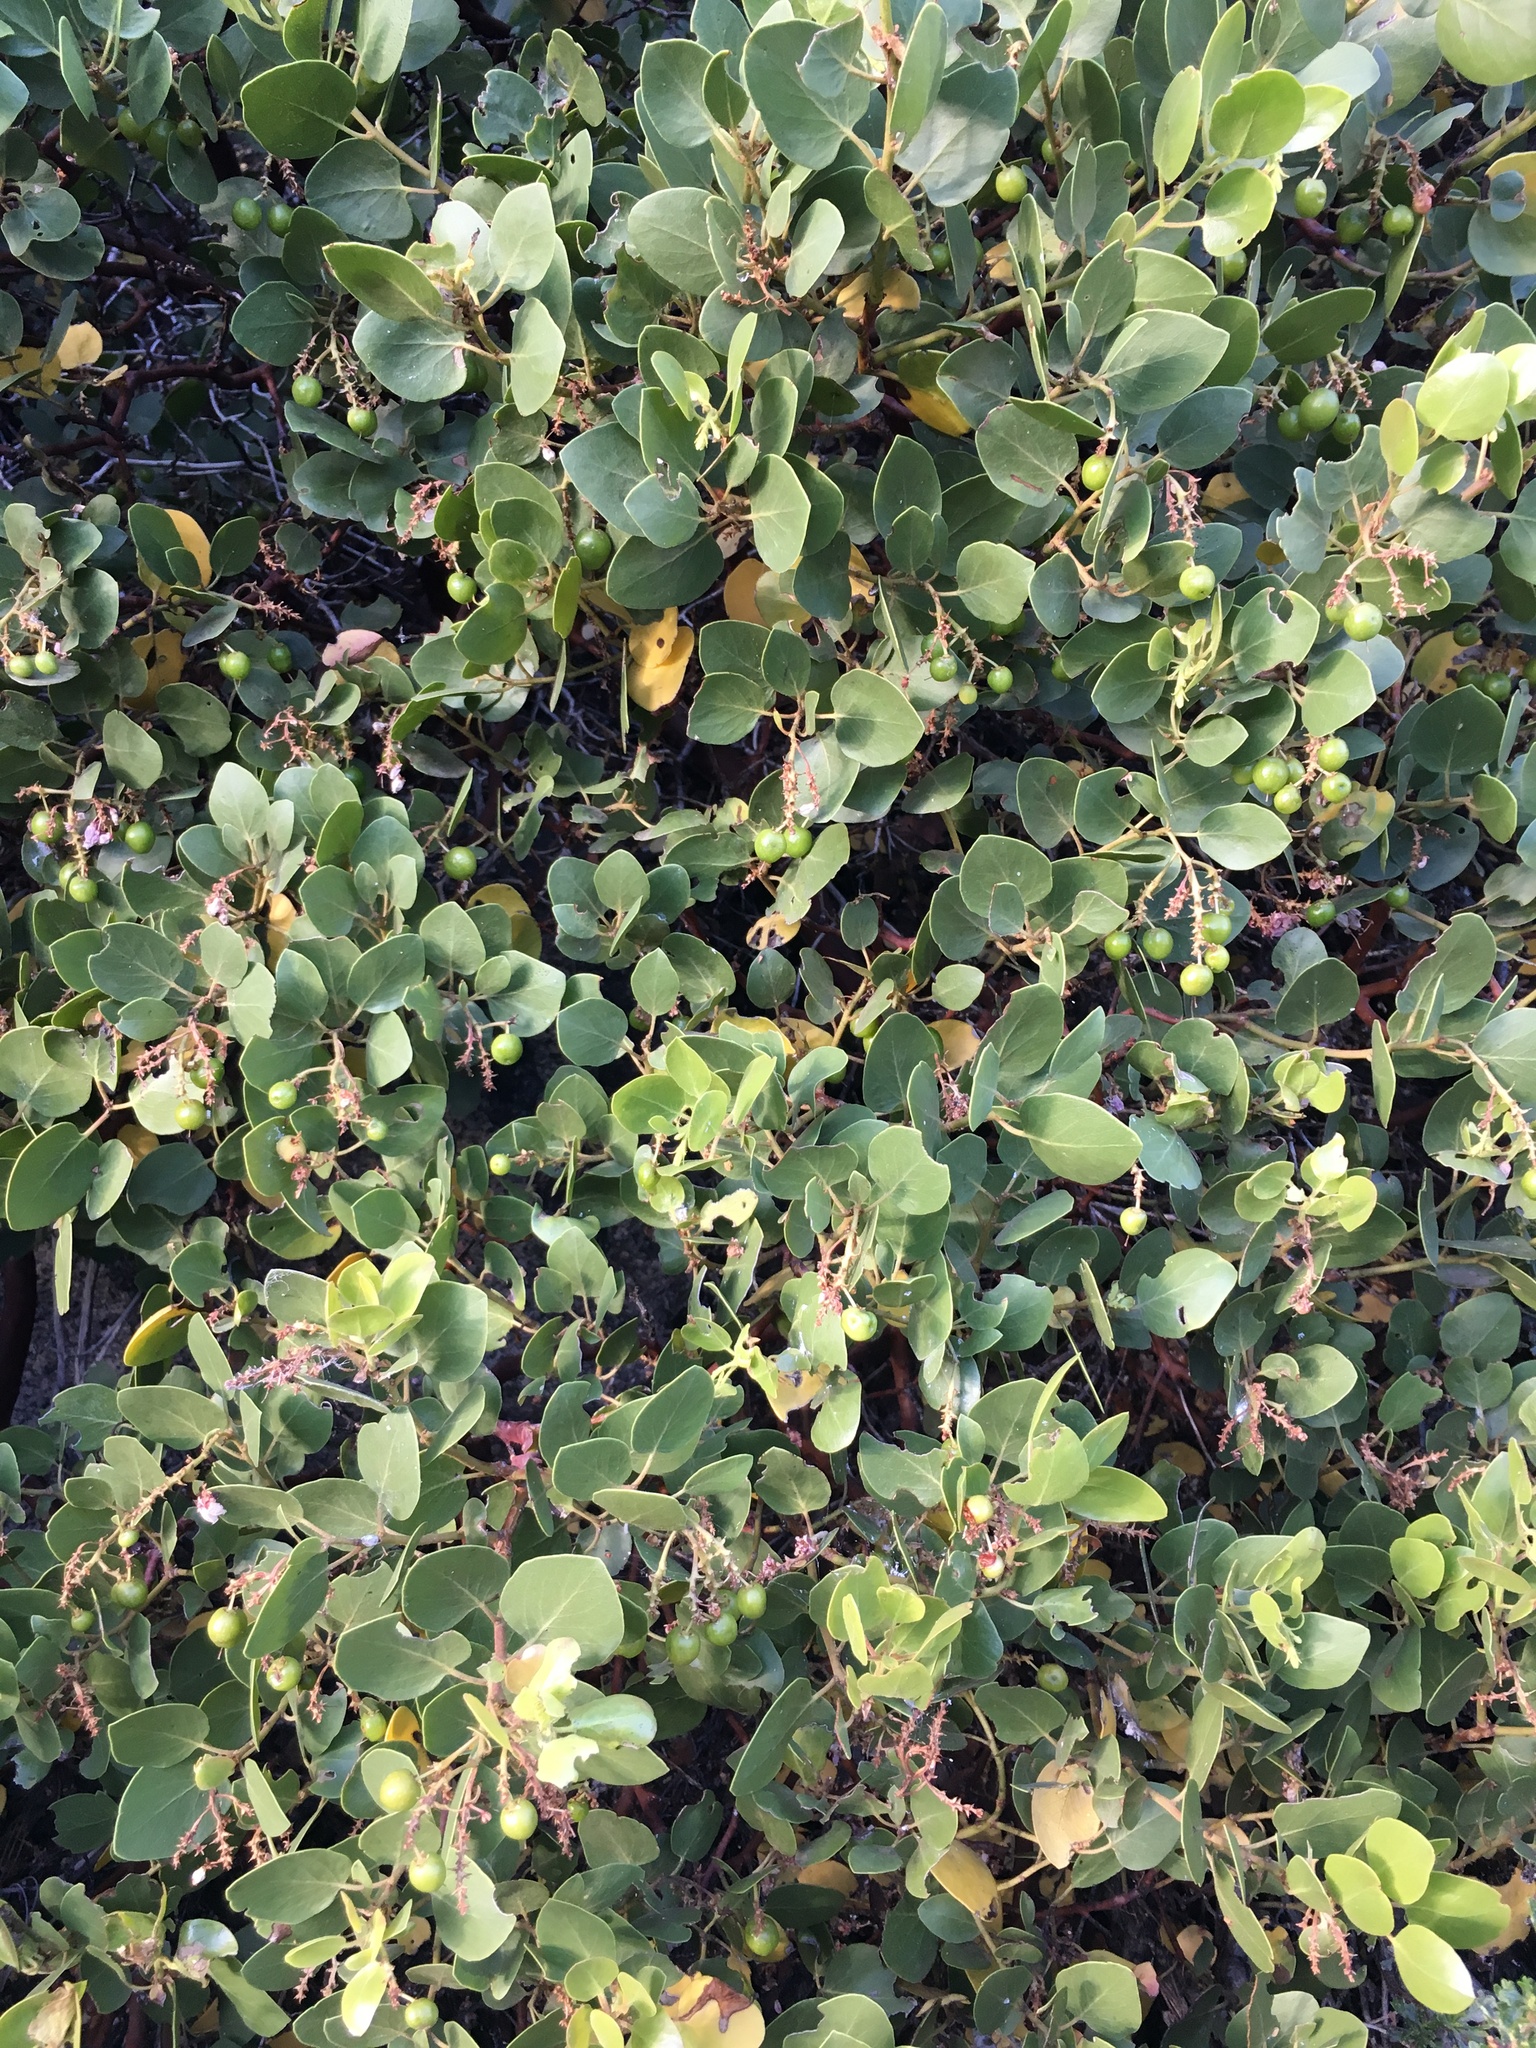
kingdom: Plantae
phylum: Tracheophyta
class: Magnoliopsida
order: Ericales
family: Ericaceae
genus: Arctostaphylos
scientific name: Arctostaphylos patula
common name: Green-leaf manzanita
